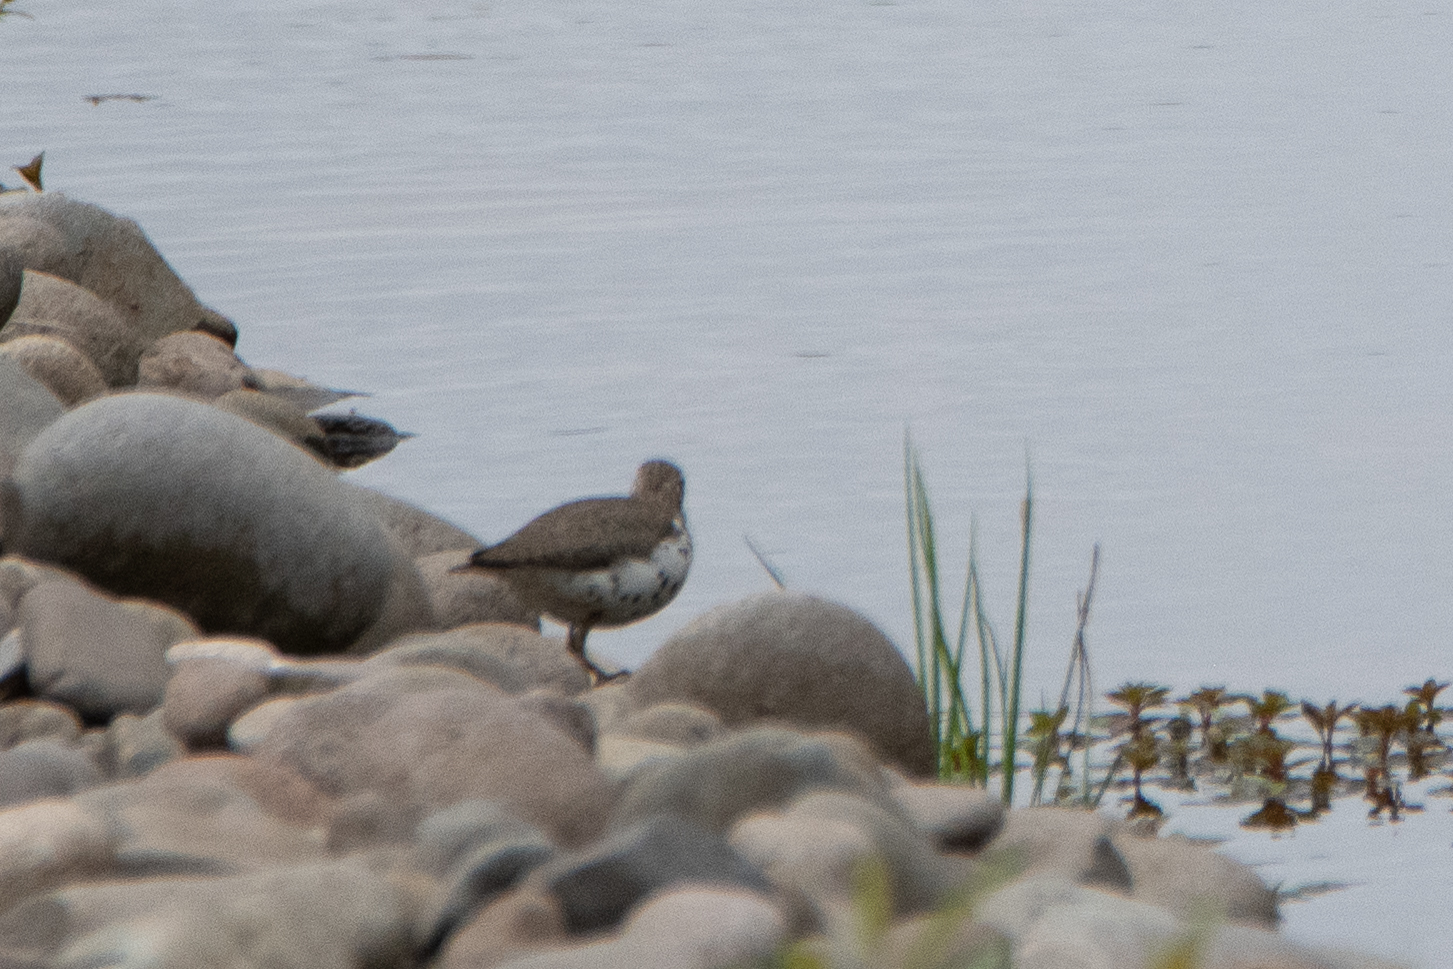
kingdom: Animalia
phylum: Chordata
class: Aves
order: Charadriiformes
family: Scolopacidae
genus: Actitis
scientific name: Actitis macularius
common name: Spotted sandpiper
